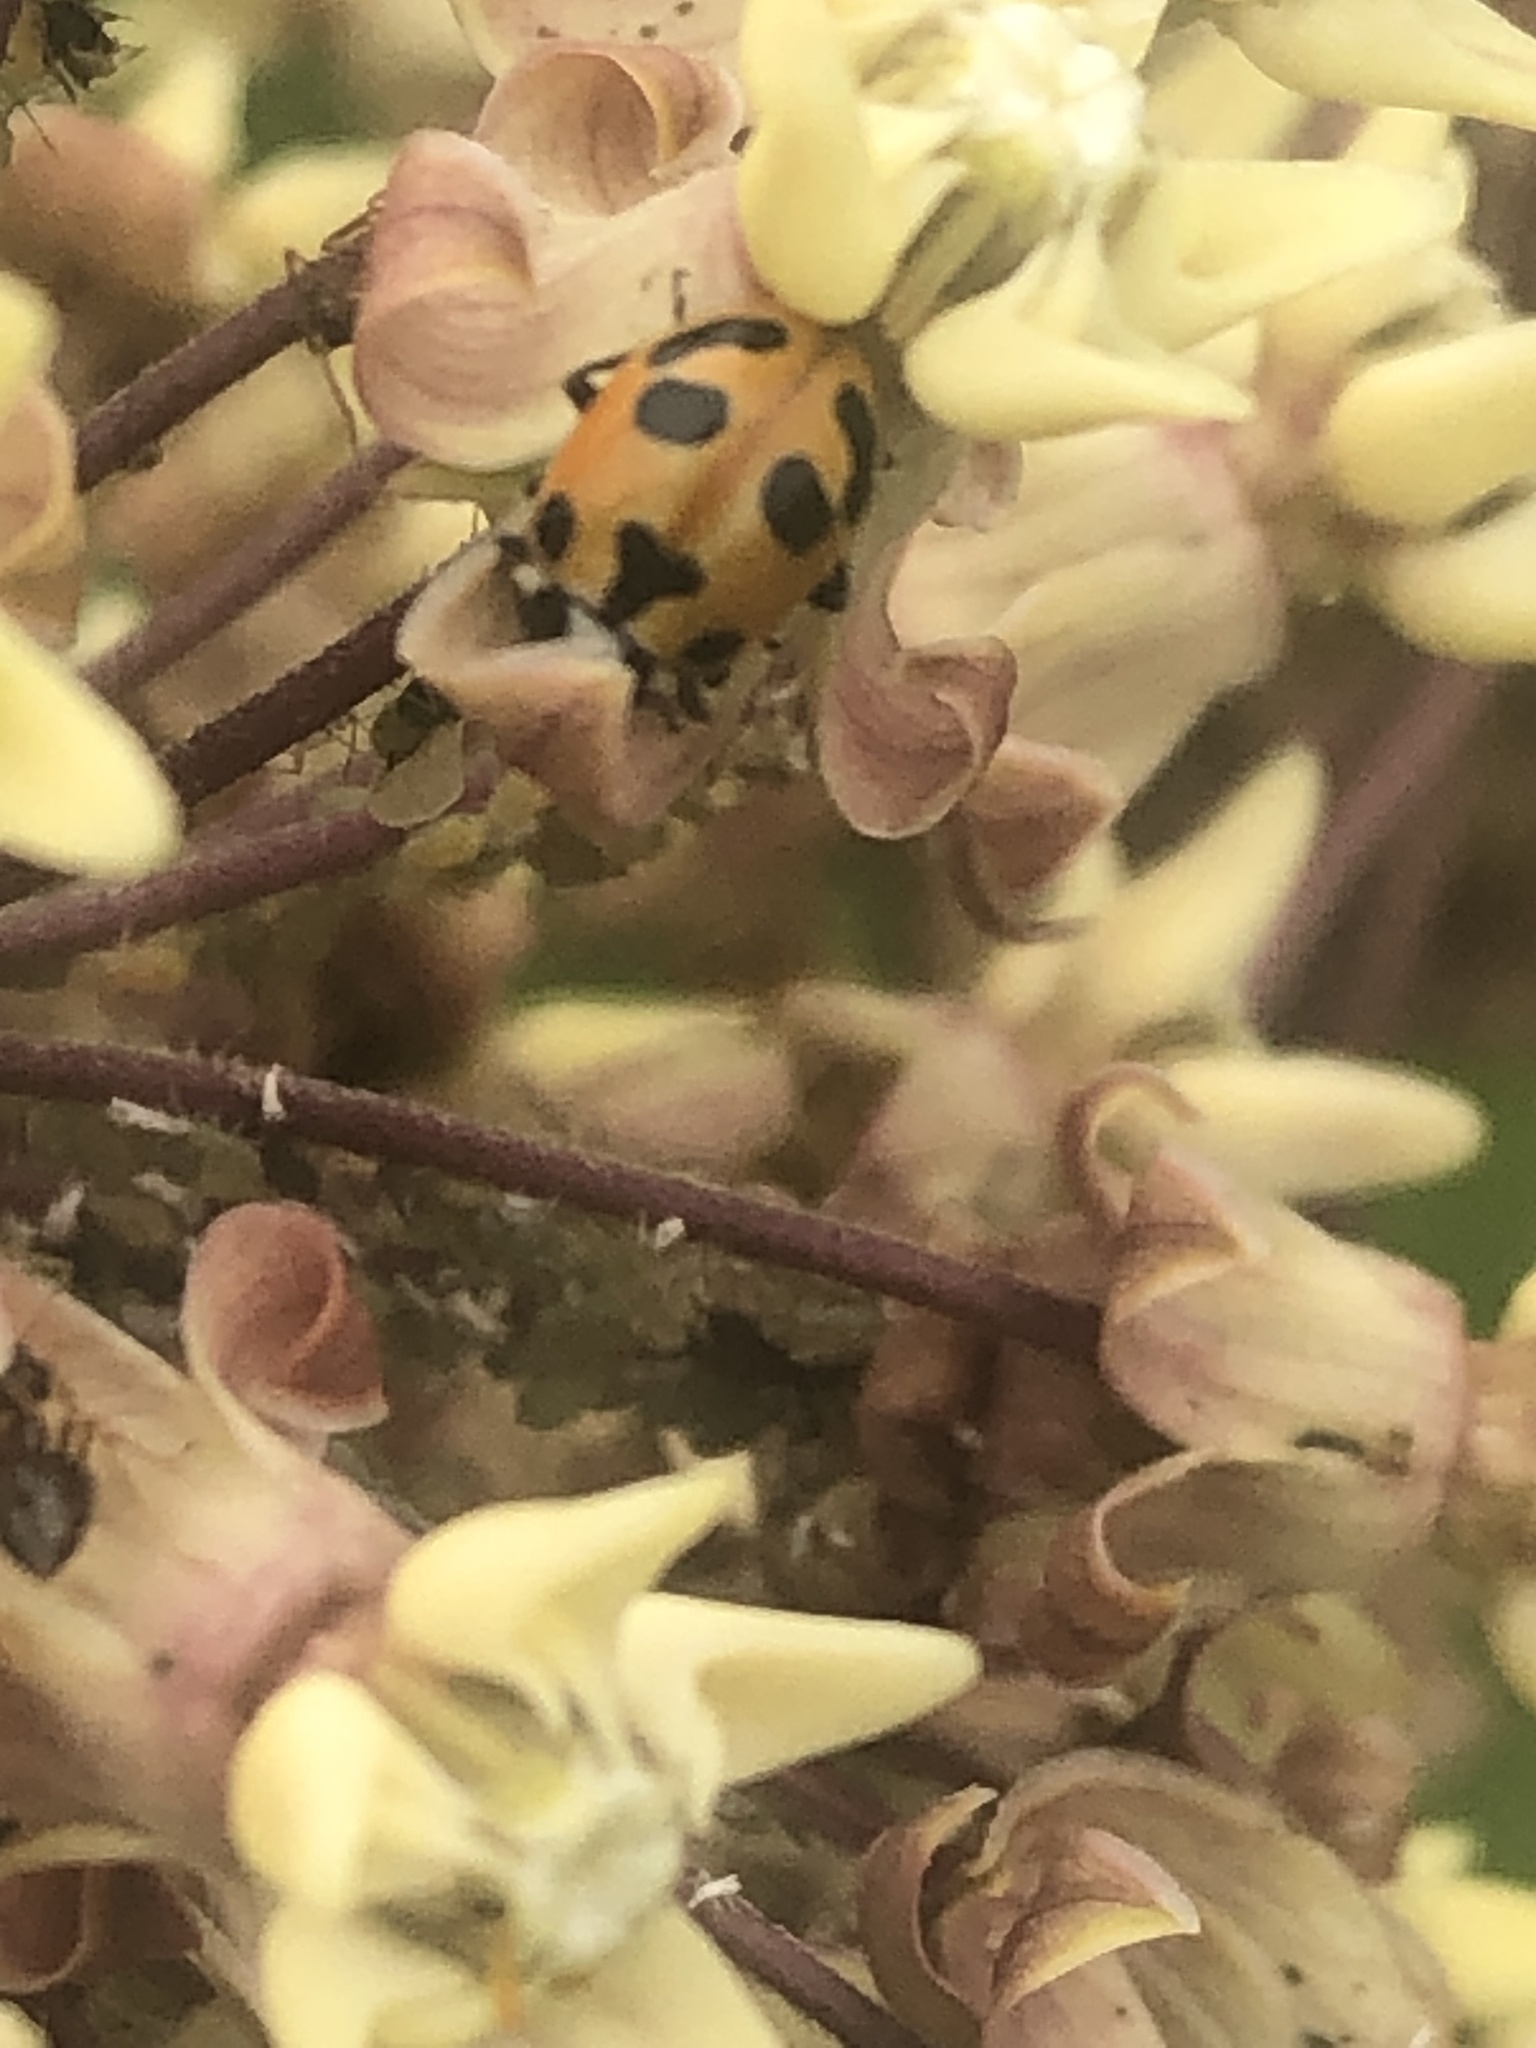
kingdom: Animalia
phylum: Arthropoda
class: Insecta
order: Coleoptera
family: Coccinellidae
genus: Hippodamia
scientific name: Hippodamia parenthesis
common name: Parenthesis lady beetle
